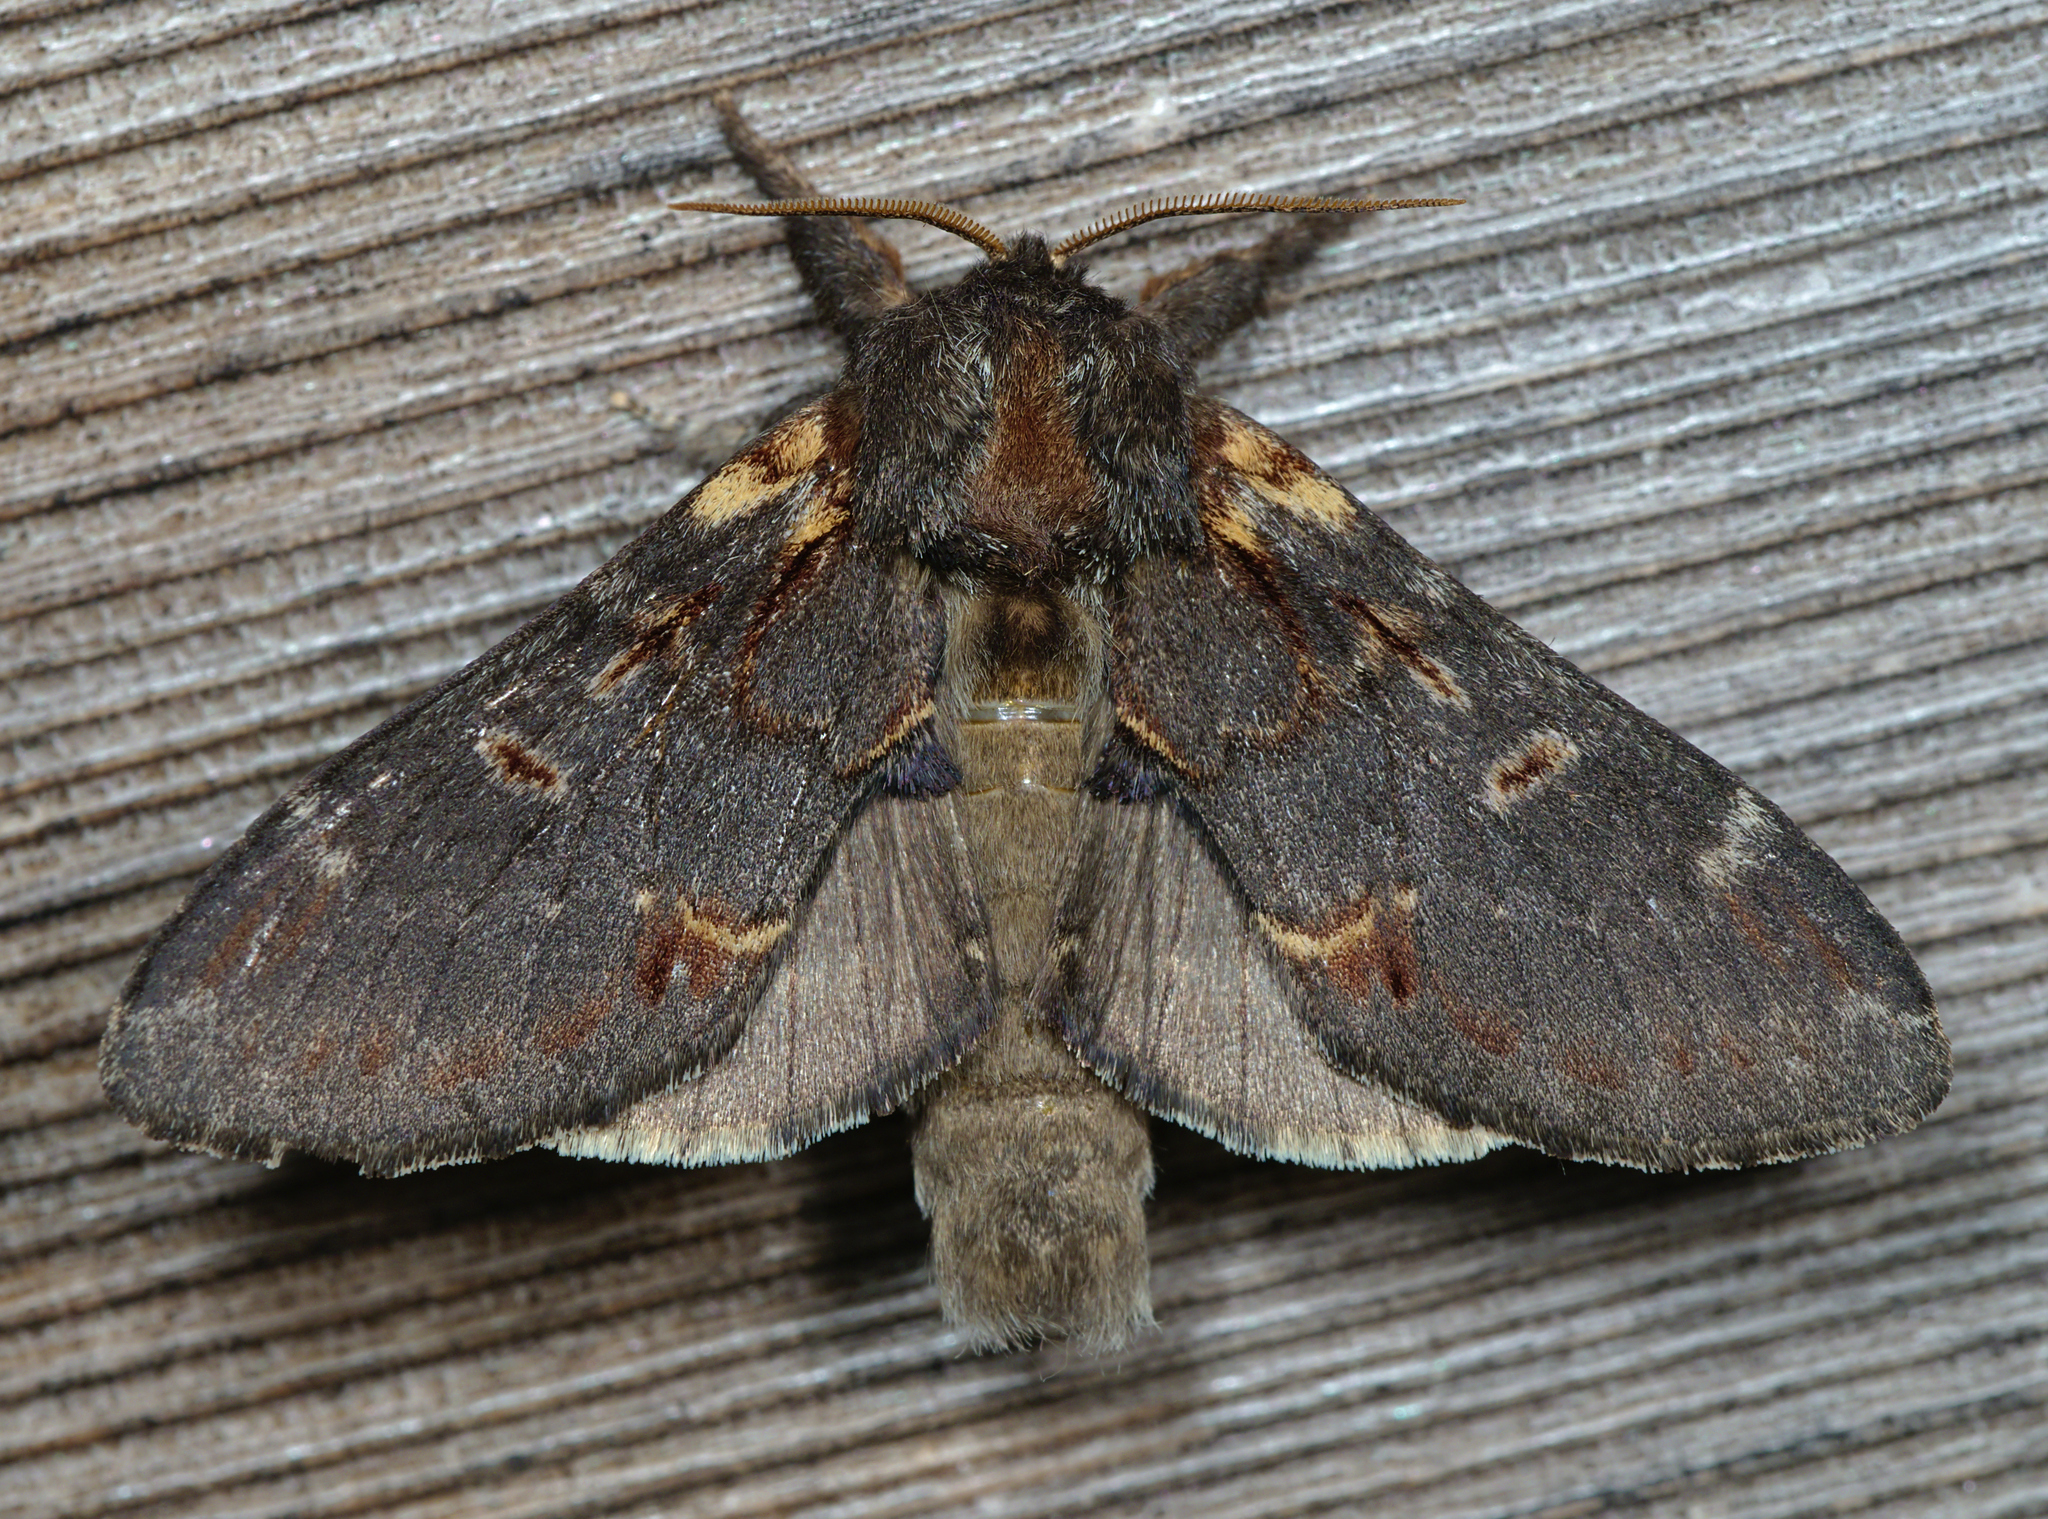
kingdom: Animalia
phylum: Arthropoda
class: Insecta
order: Lepidoptera
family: Notodontidae
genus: Notodonta
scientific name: Notodonta dromedarius
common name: Iron prominent
